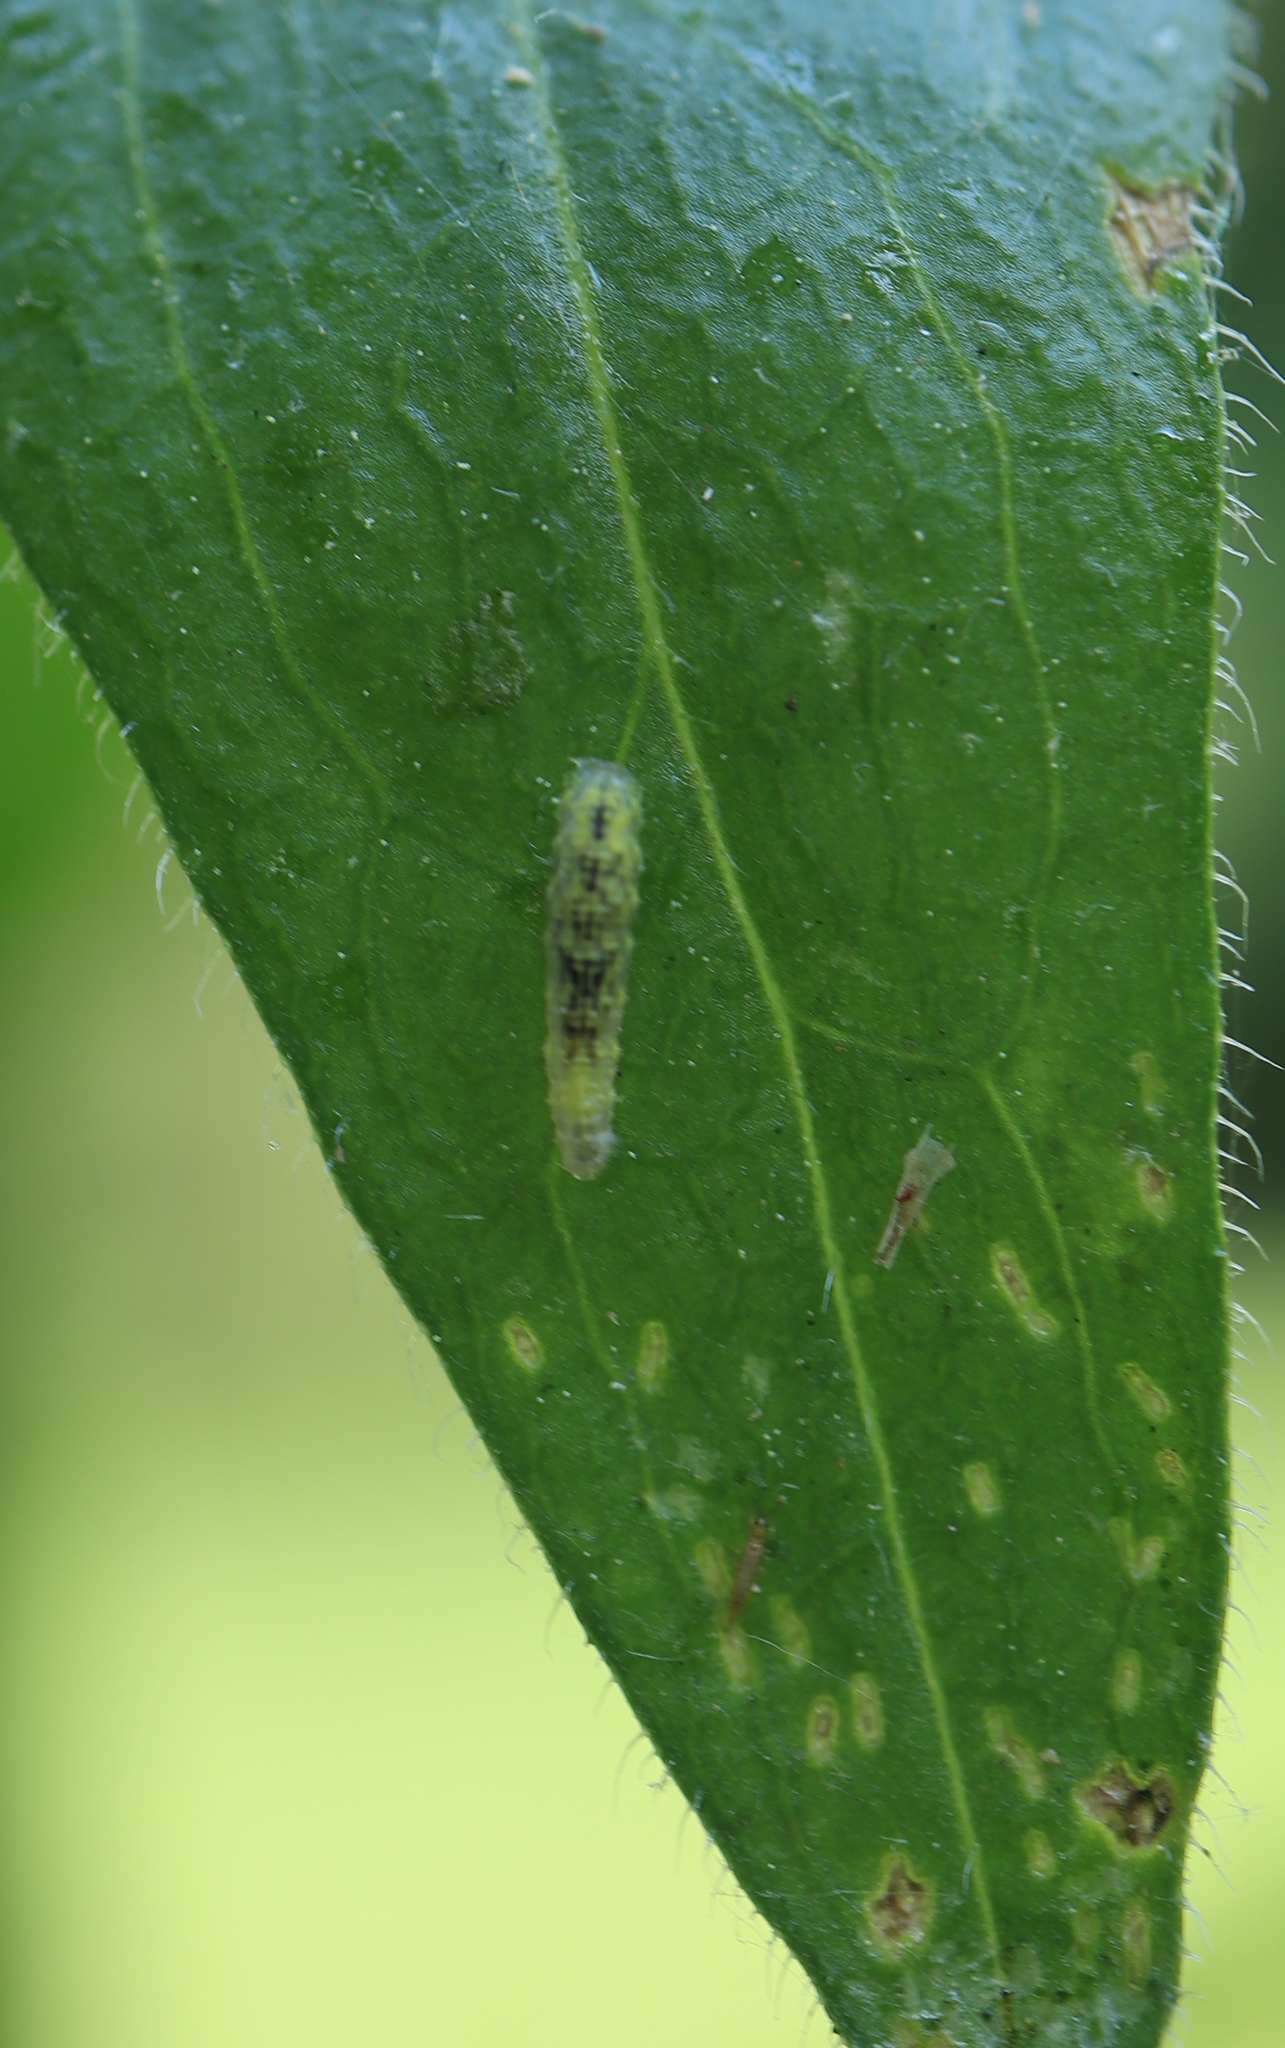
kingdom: Animalia
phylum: Arthropoda
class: Insecta
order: Diptera
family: Syrphidae
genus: Syrphus
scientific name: Syrphus
